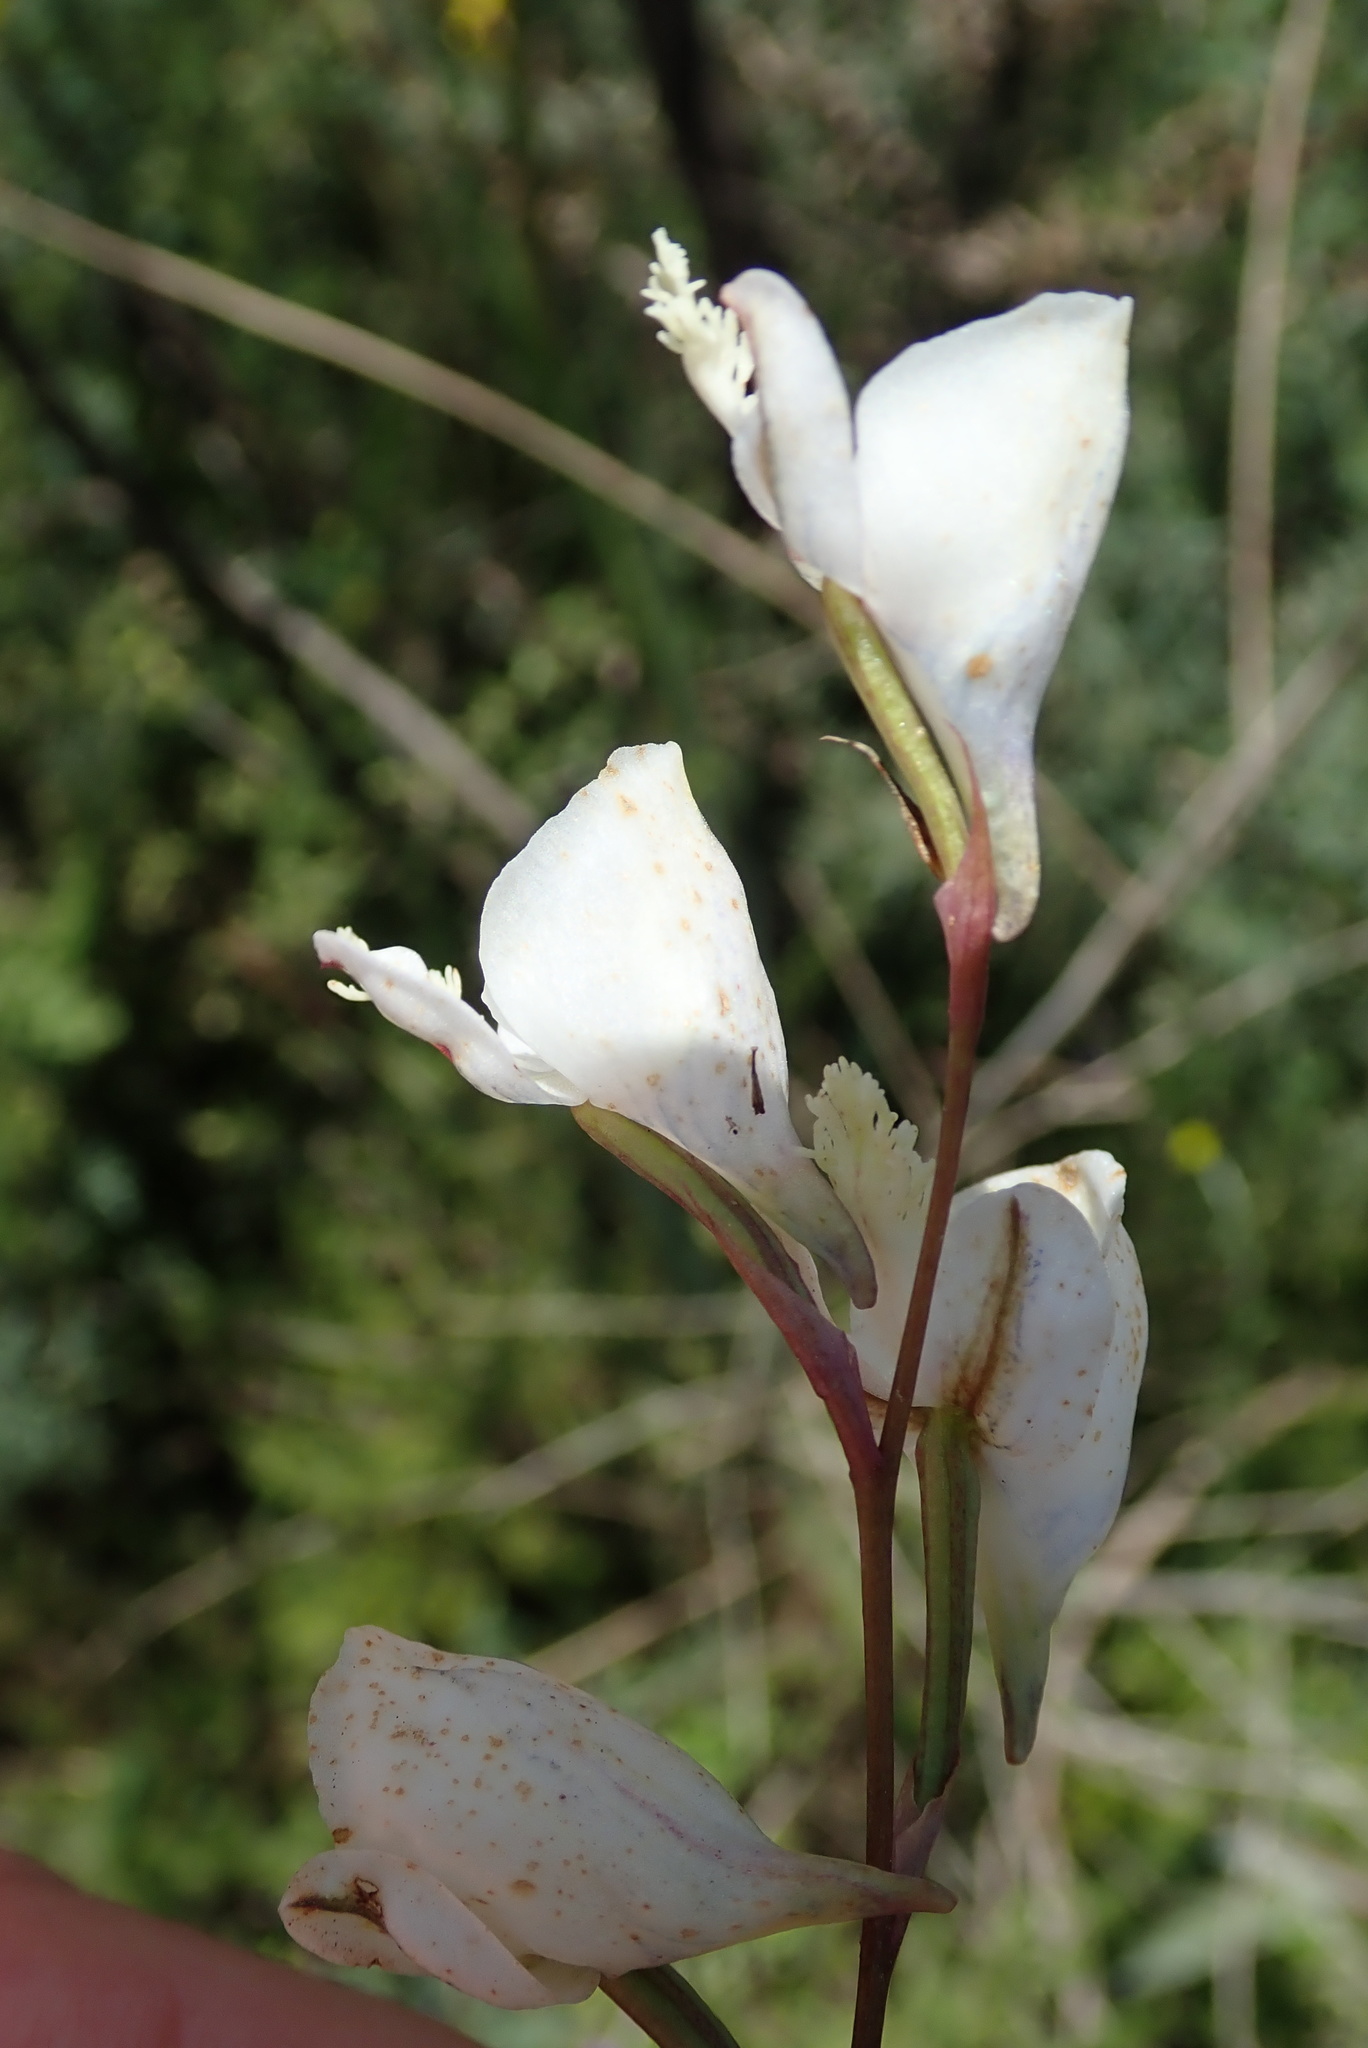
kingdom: Plantae
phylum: Tracheophyta
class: Liliopsida
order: Asparagales
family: Orchidaceae
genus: Disa
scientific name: Disa hians
